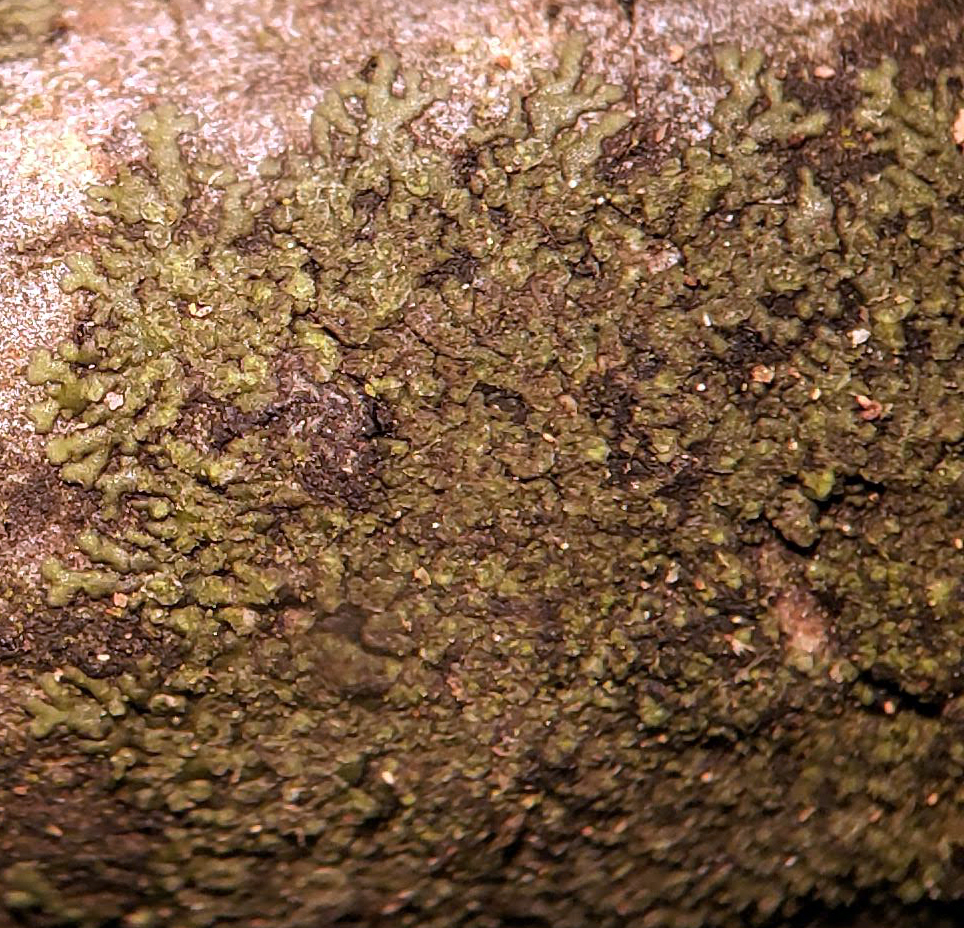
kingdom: Fungi
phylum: Ascomycota
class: Lecanoromycetes
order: Caliciales
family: Physciaceae
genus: Hyperphyscia
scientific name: Hyperphyscia adglutinata
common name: Grainy shadow-crust lichen
